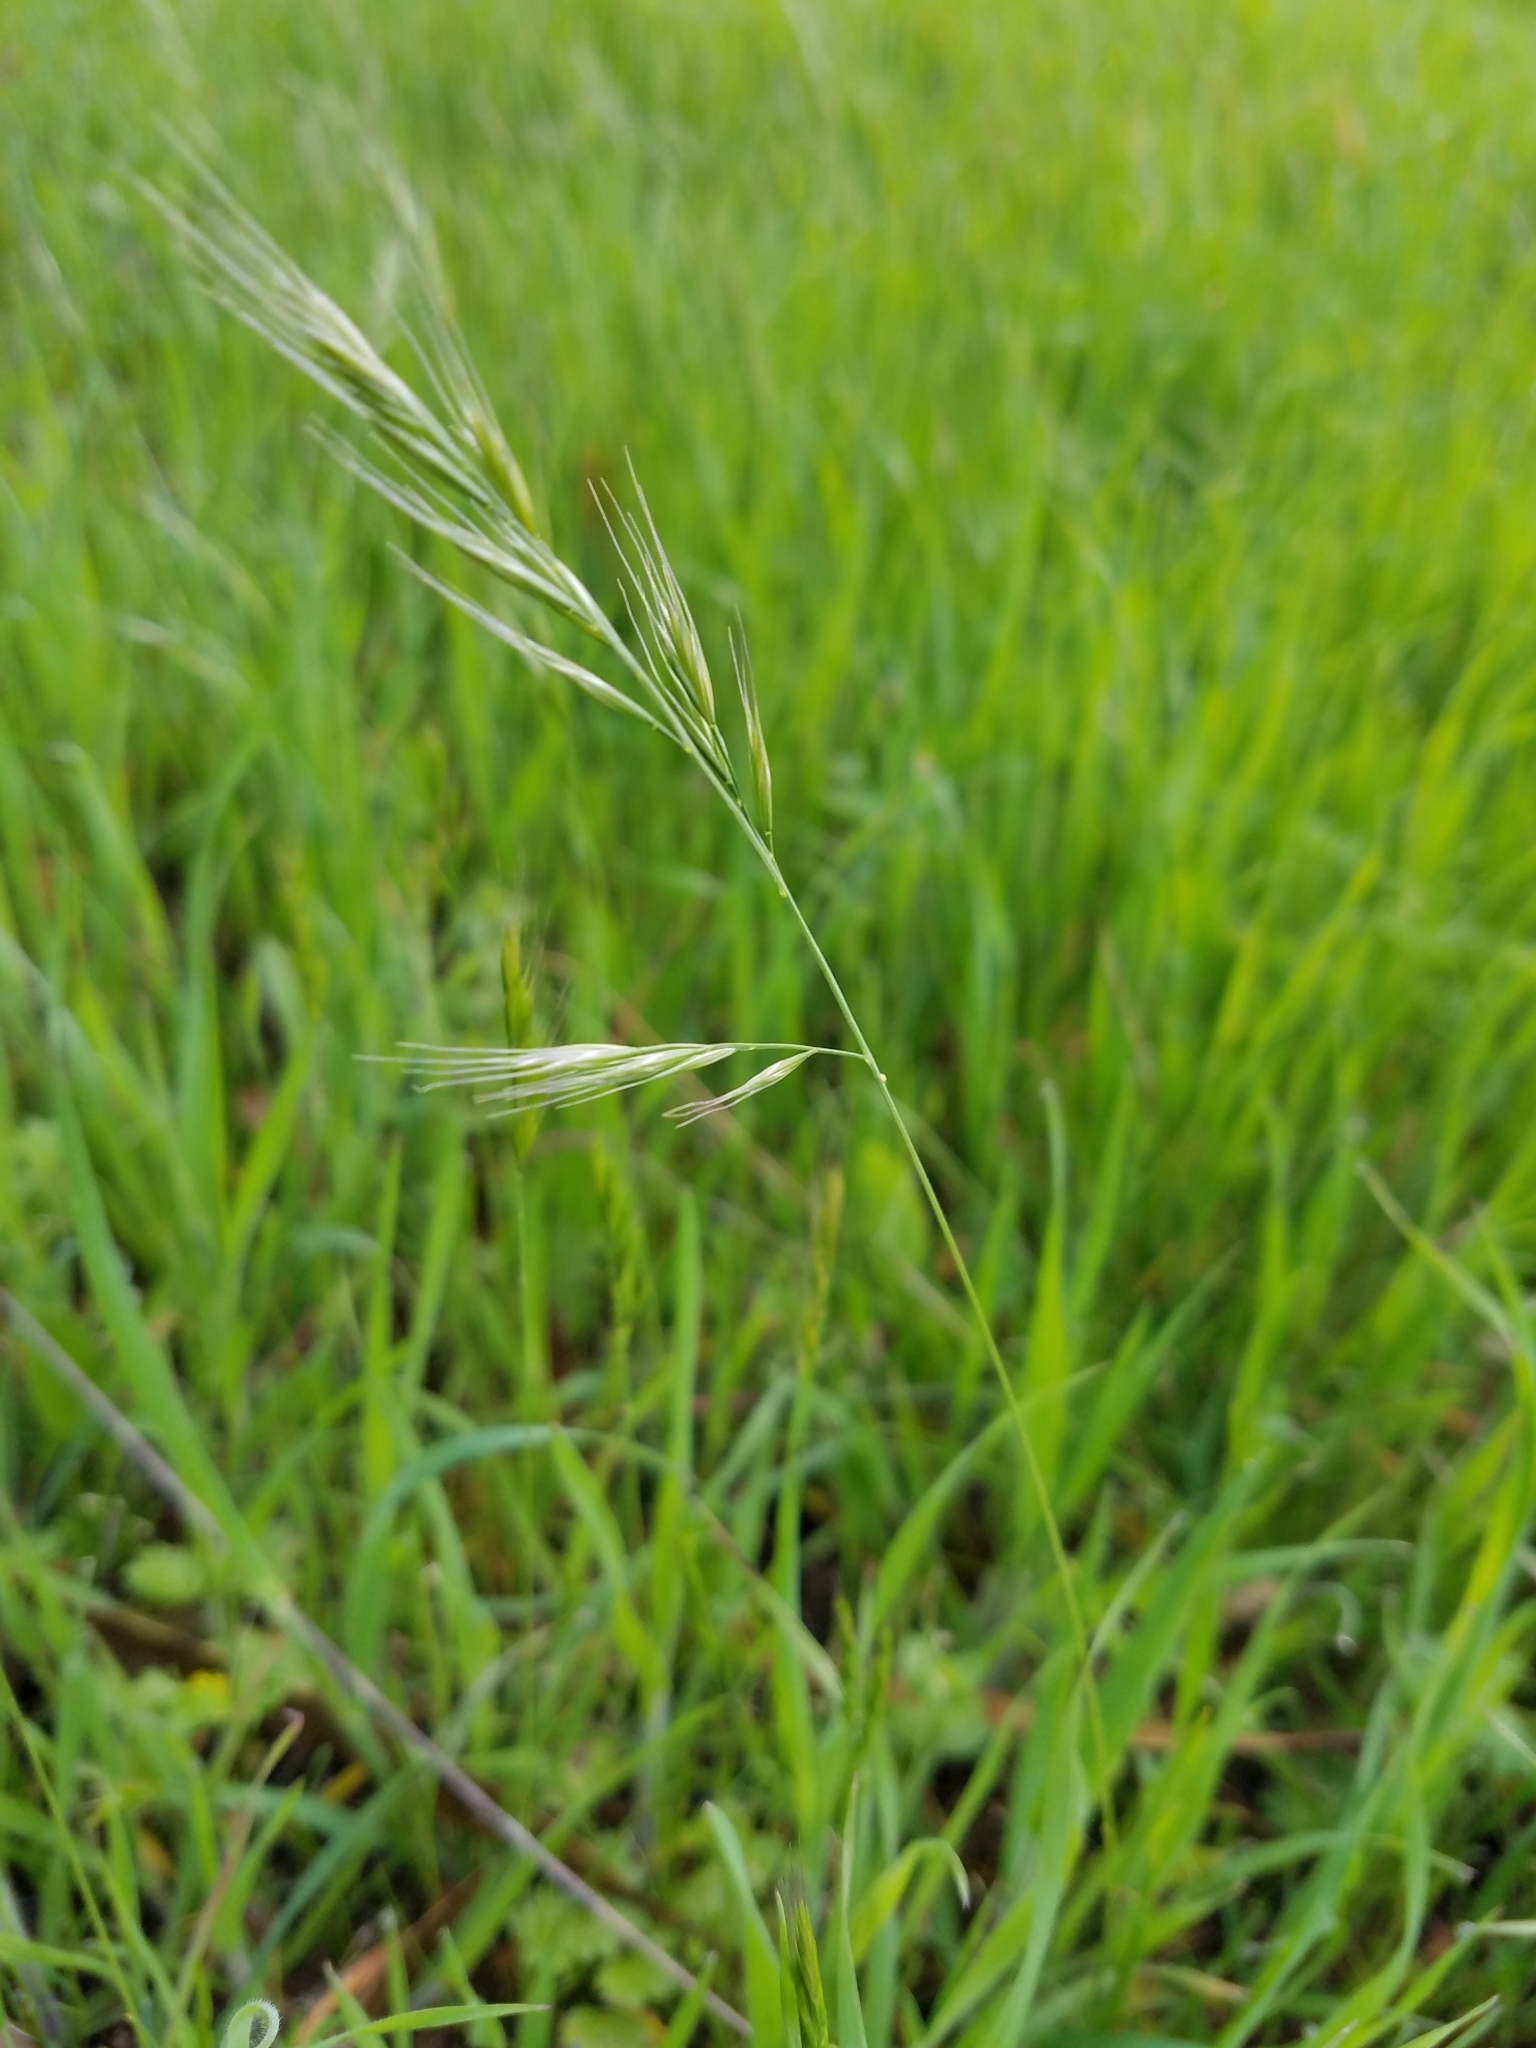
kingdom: Plantae
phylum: Tracheophyta
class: Liliopsida
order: Poales
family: Poaceae
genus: Festuca
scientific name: Festuca bromoides
